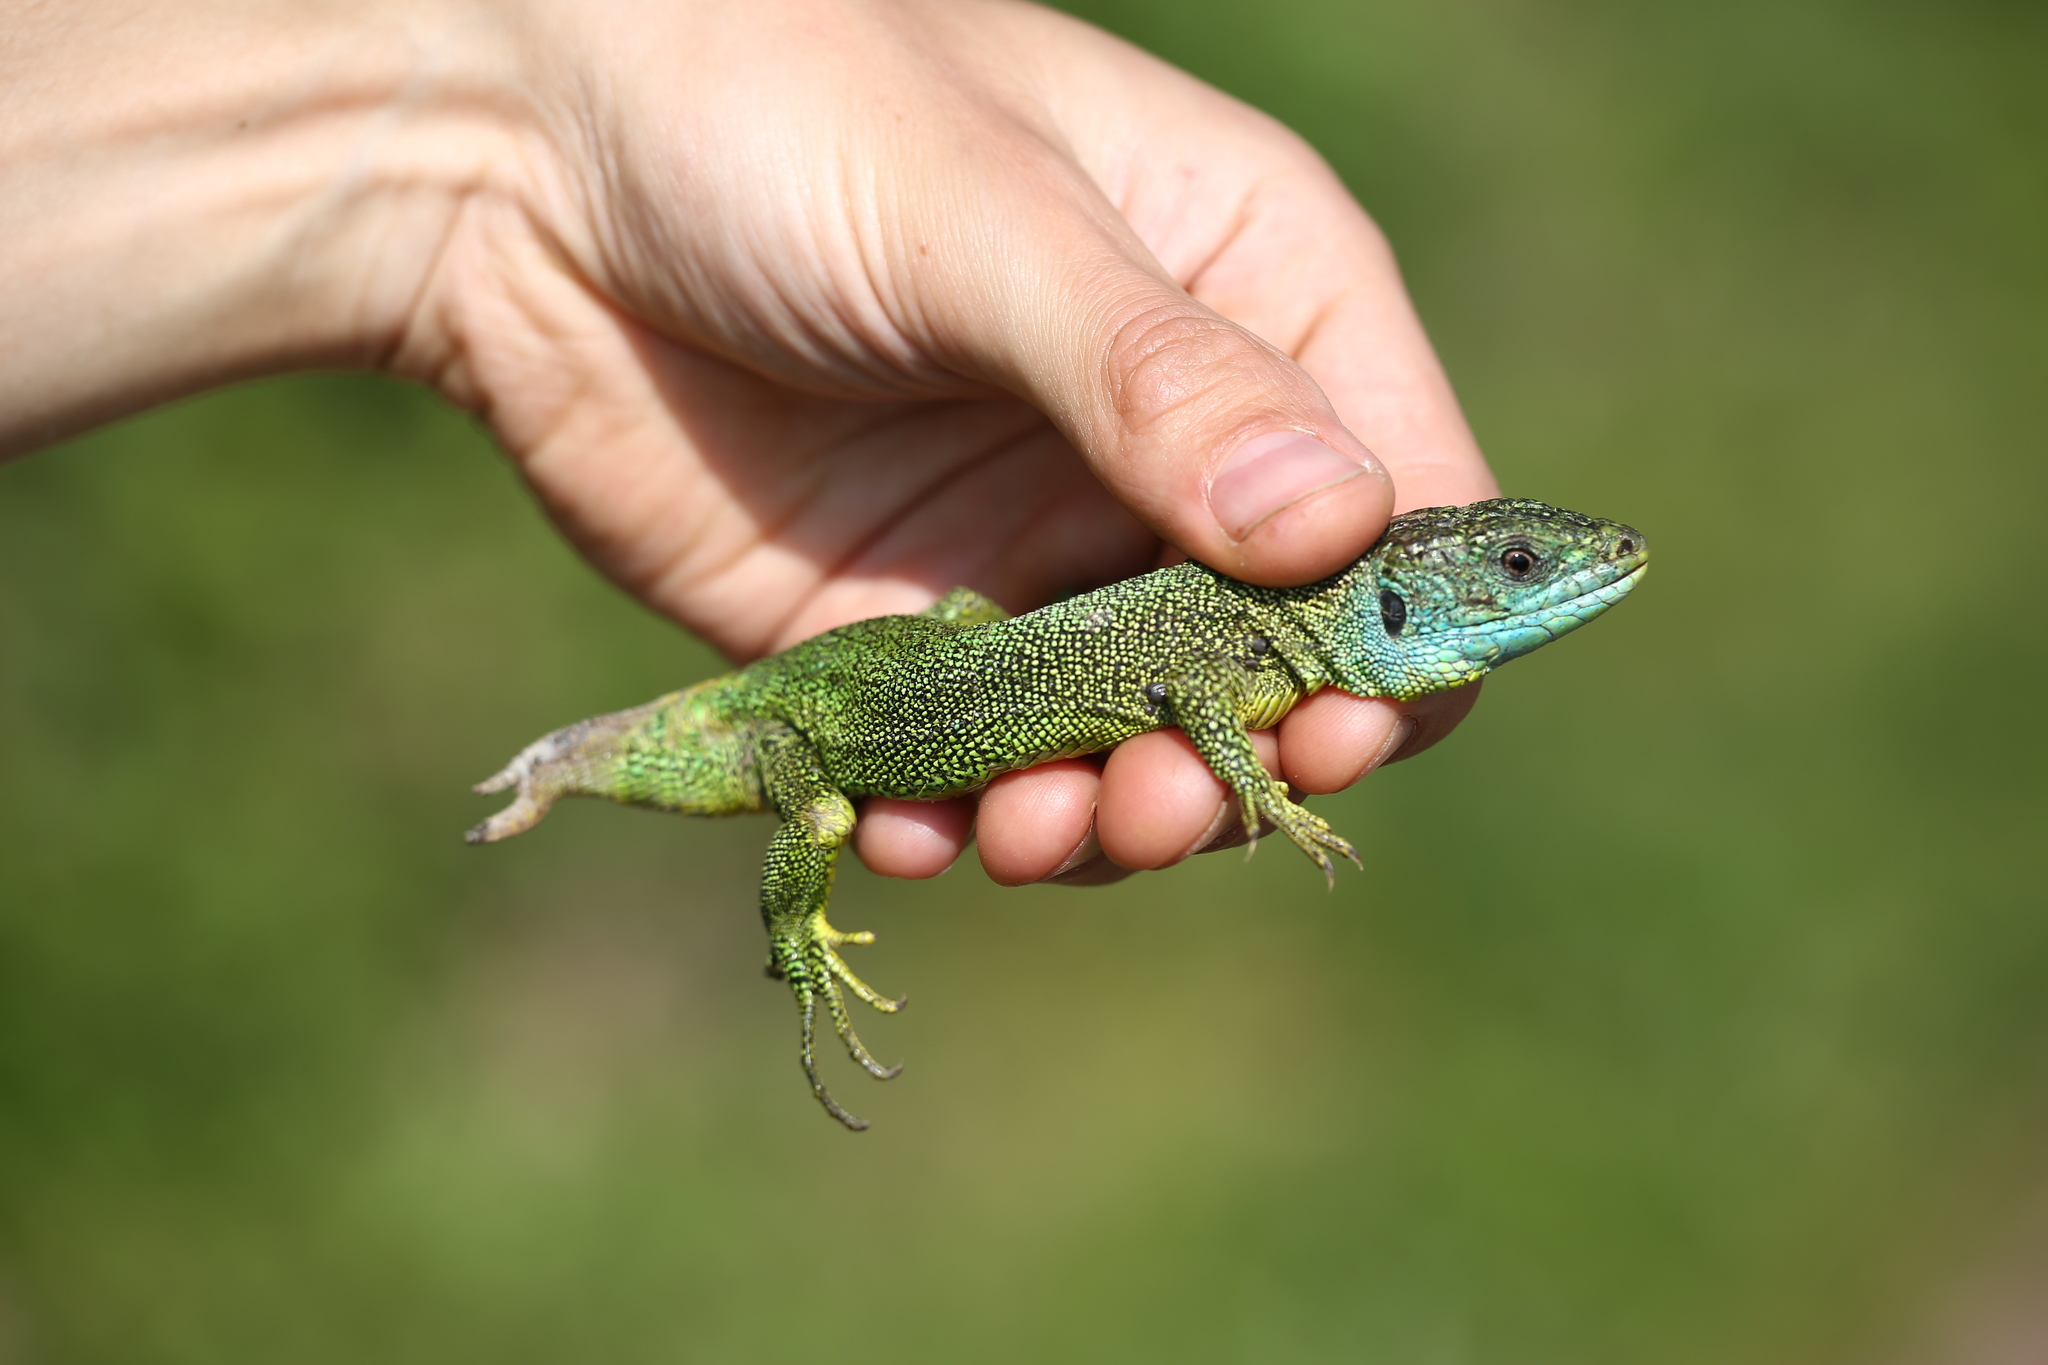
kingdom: Animalia
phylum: Chordata
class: Squamata
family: Lacertidae
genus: Lacerta
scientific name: Lacerta bilineata
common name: Western green lizard
